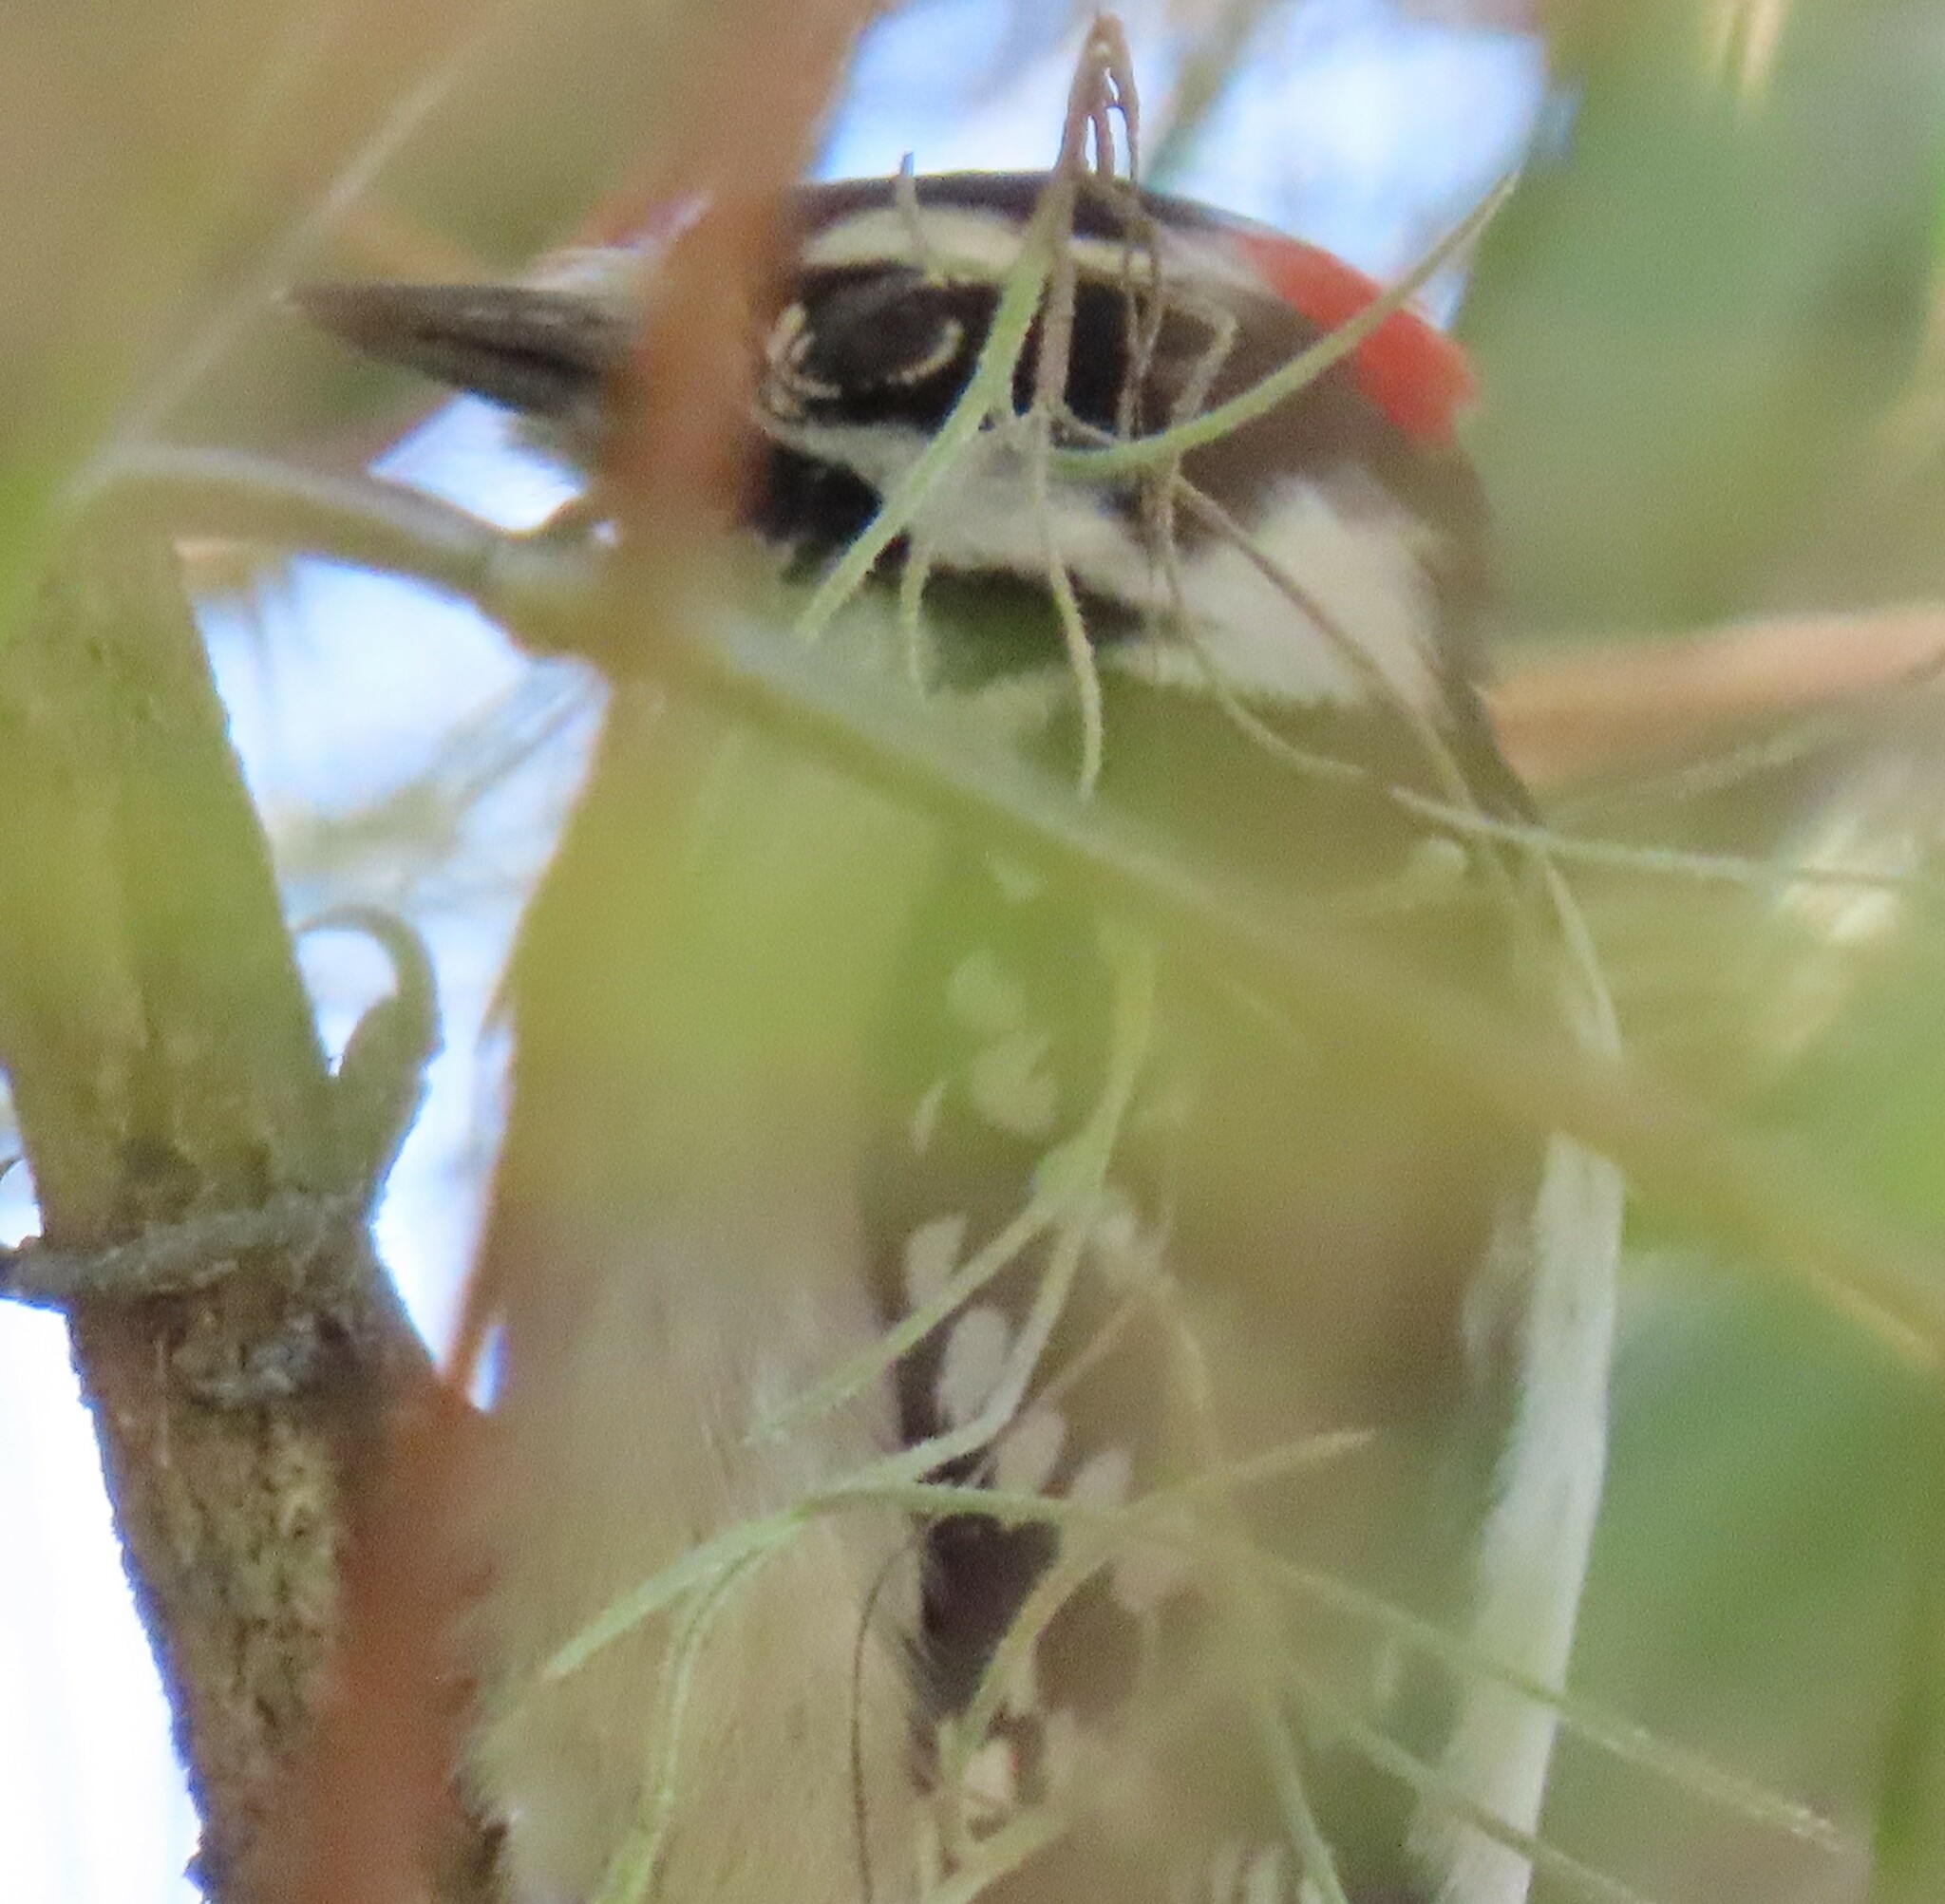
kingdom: Animalia
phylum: Chordata
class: Aves
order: Piciformes
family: Picidae
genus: Dryobates
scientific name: Dryobates pubescens
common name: Downy woodpecker
